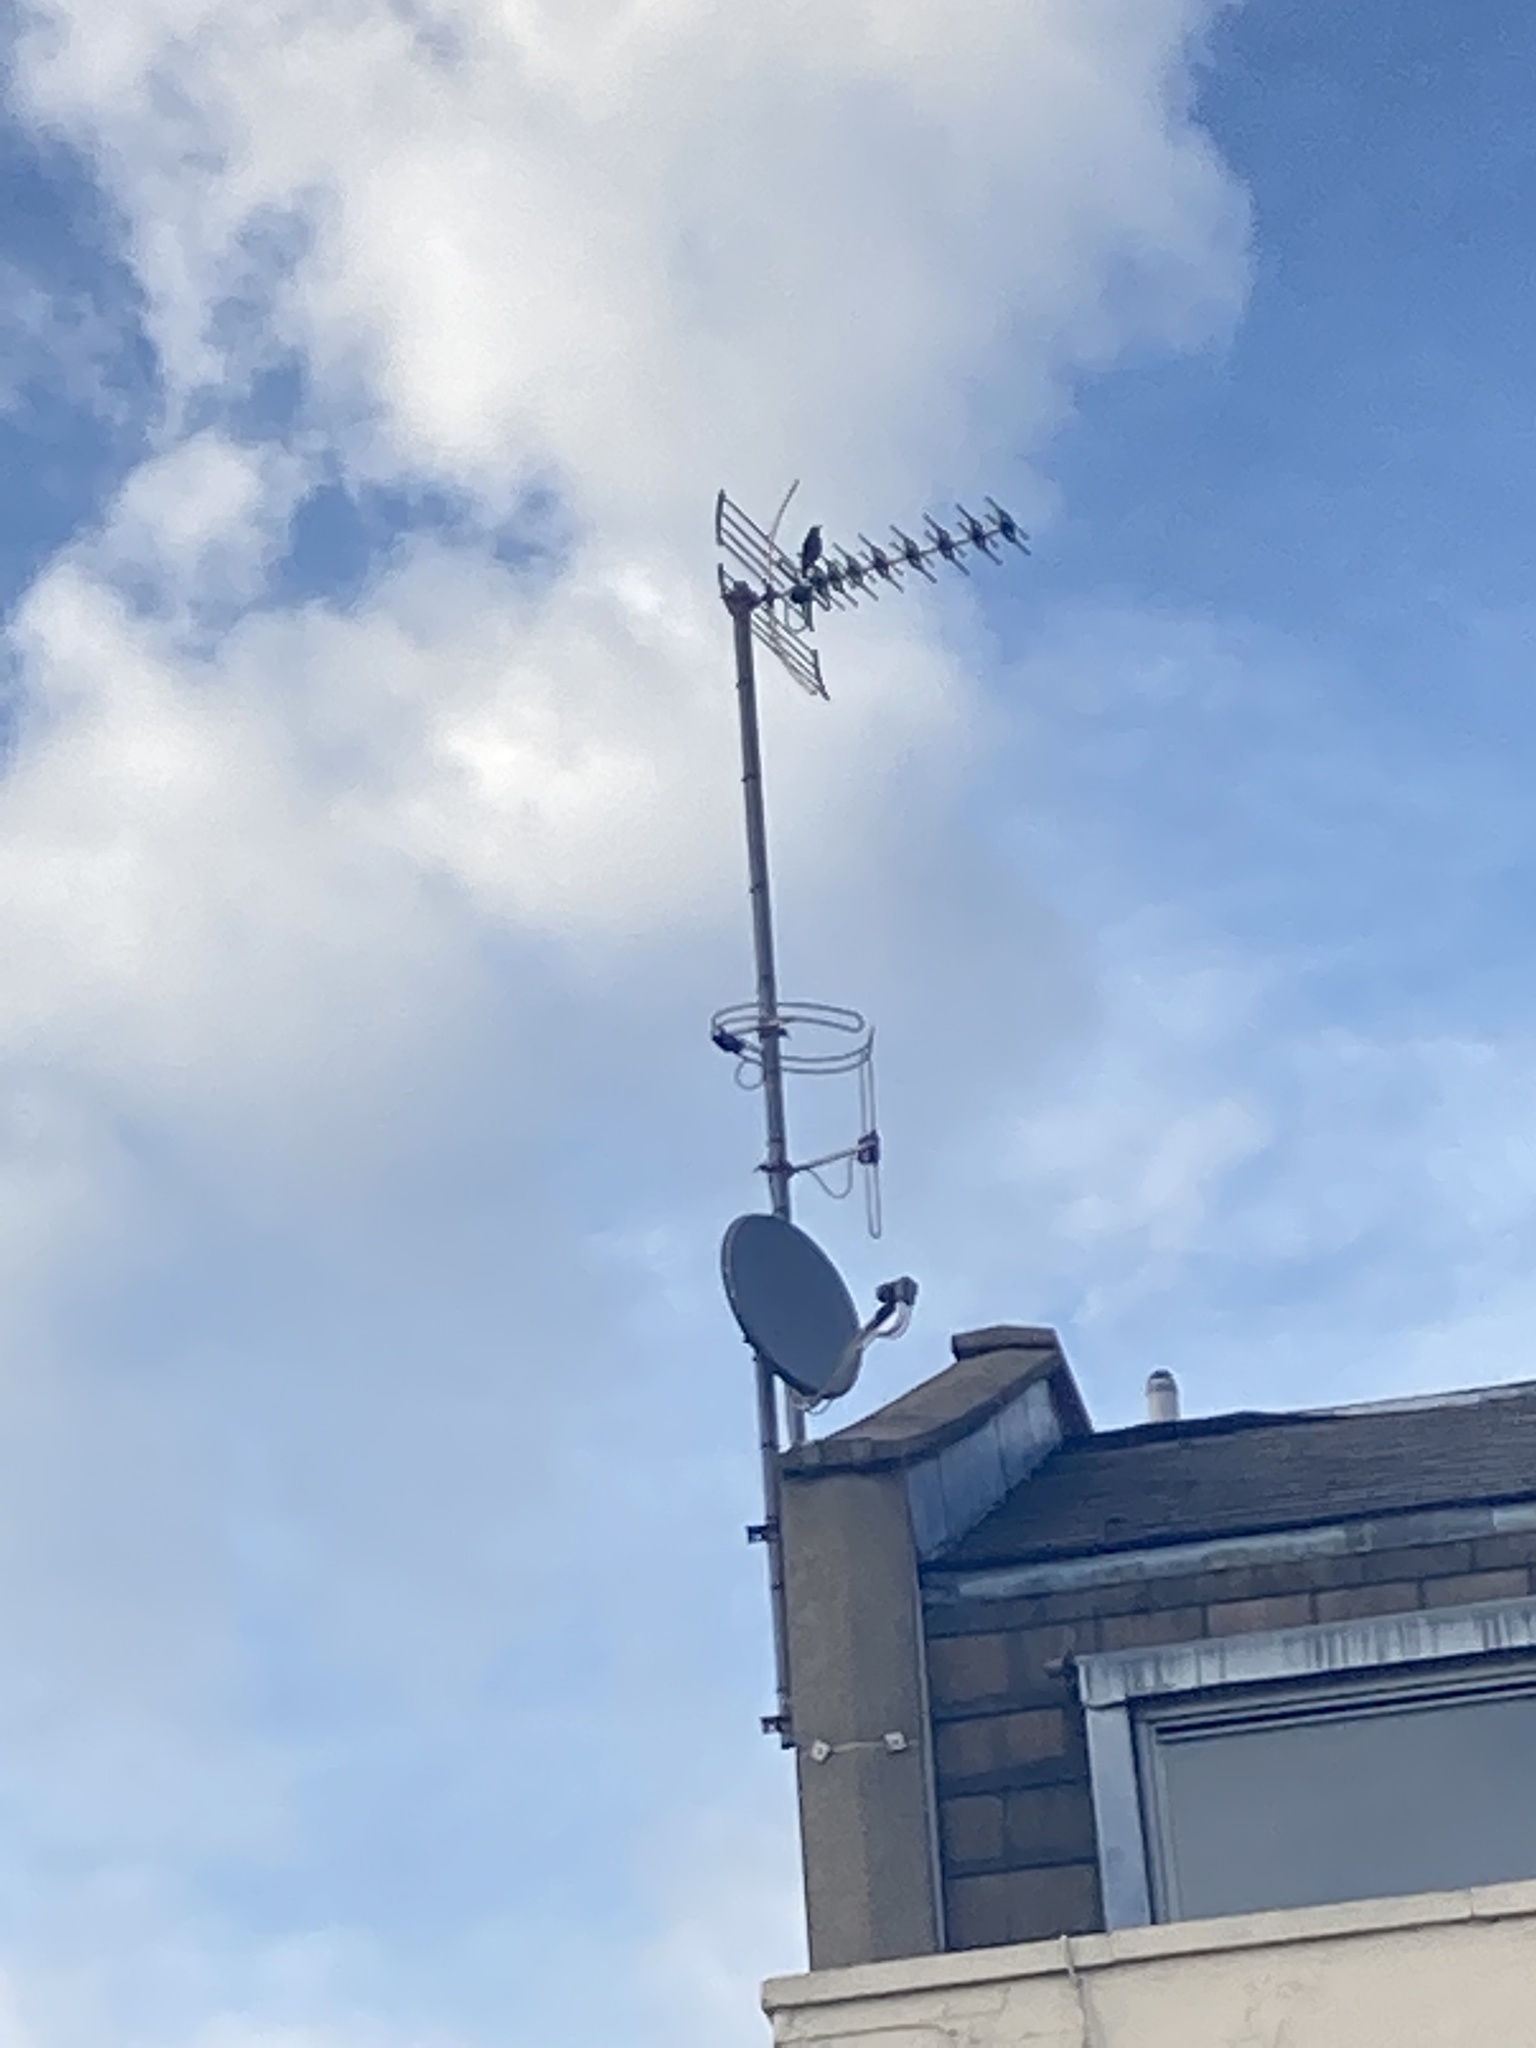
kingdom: Animalia
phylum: Chordata
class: Aves
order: Passeriformes
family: Sturnidae
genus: Sturnus
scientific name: Sturnus vulgaris
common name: Common starling
